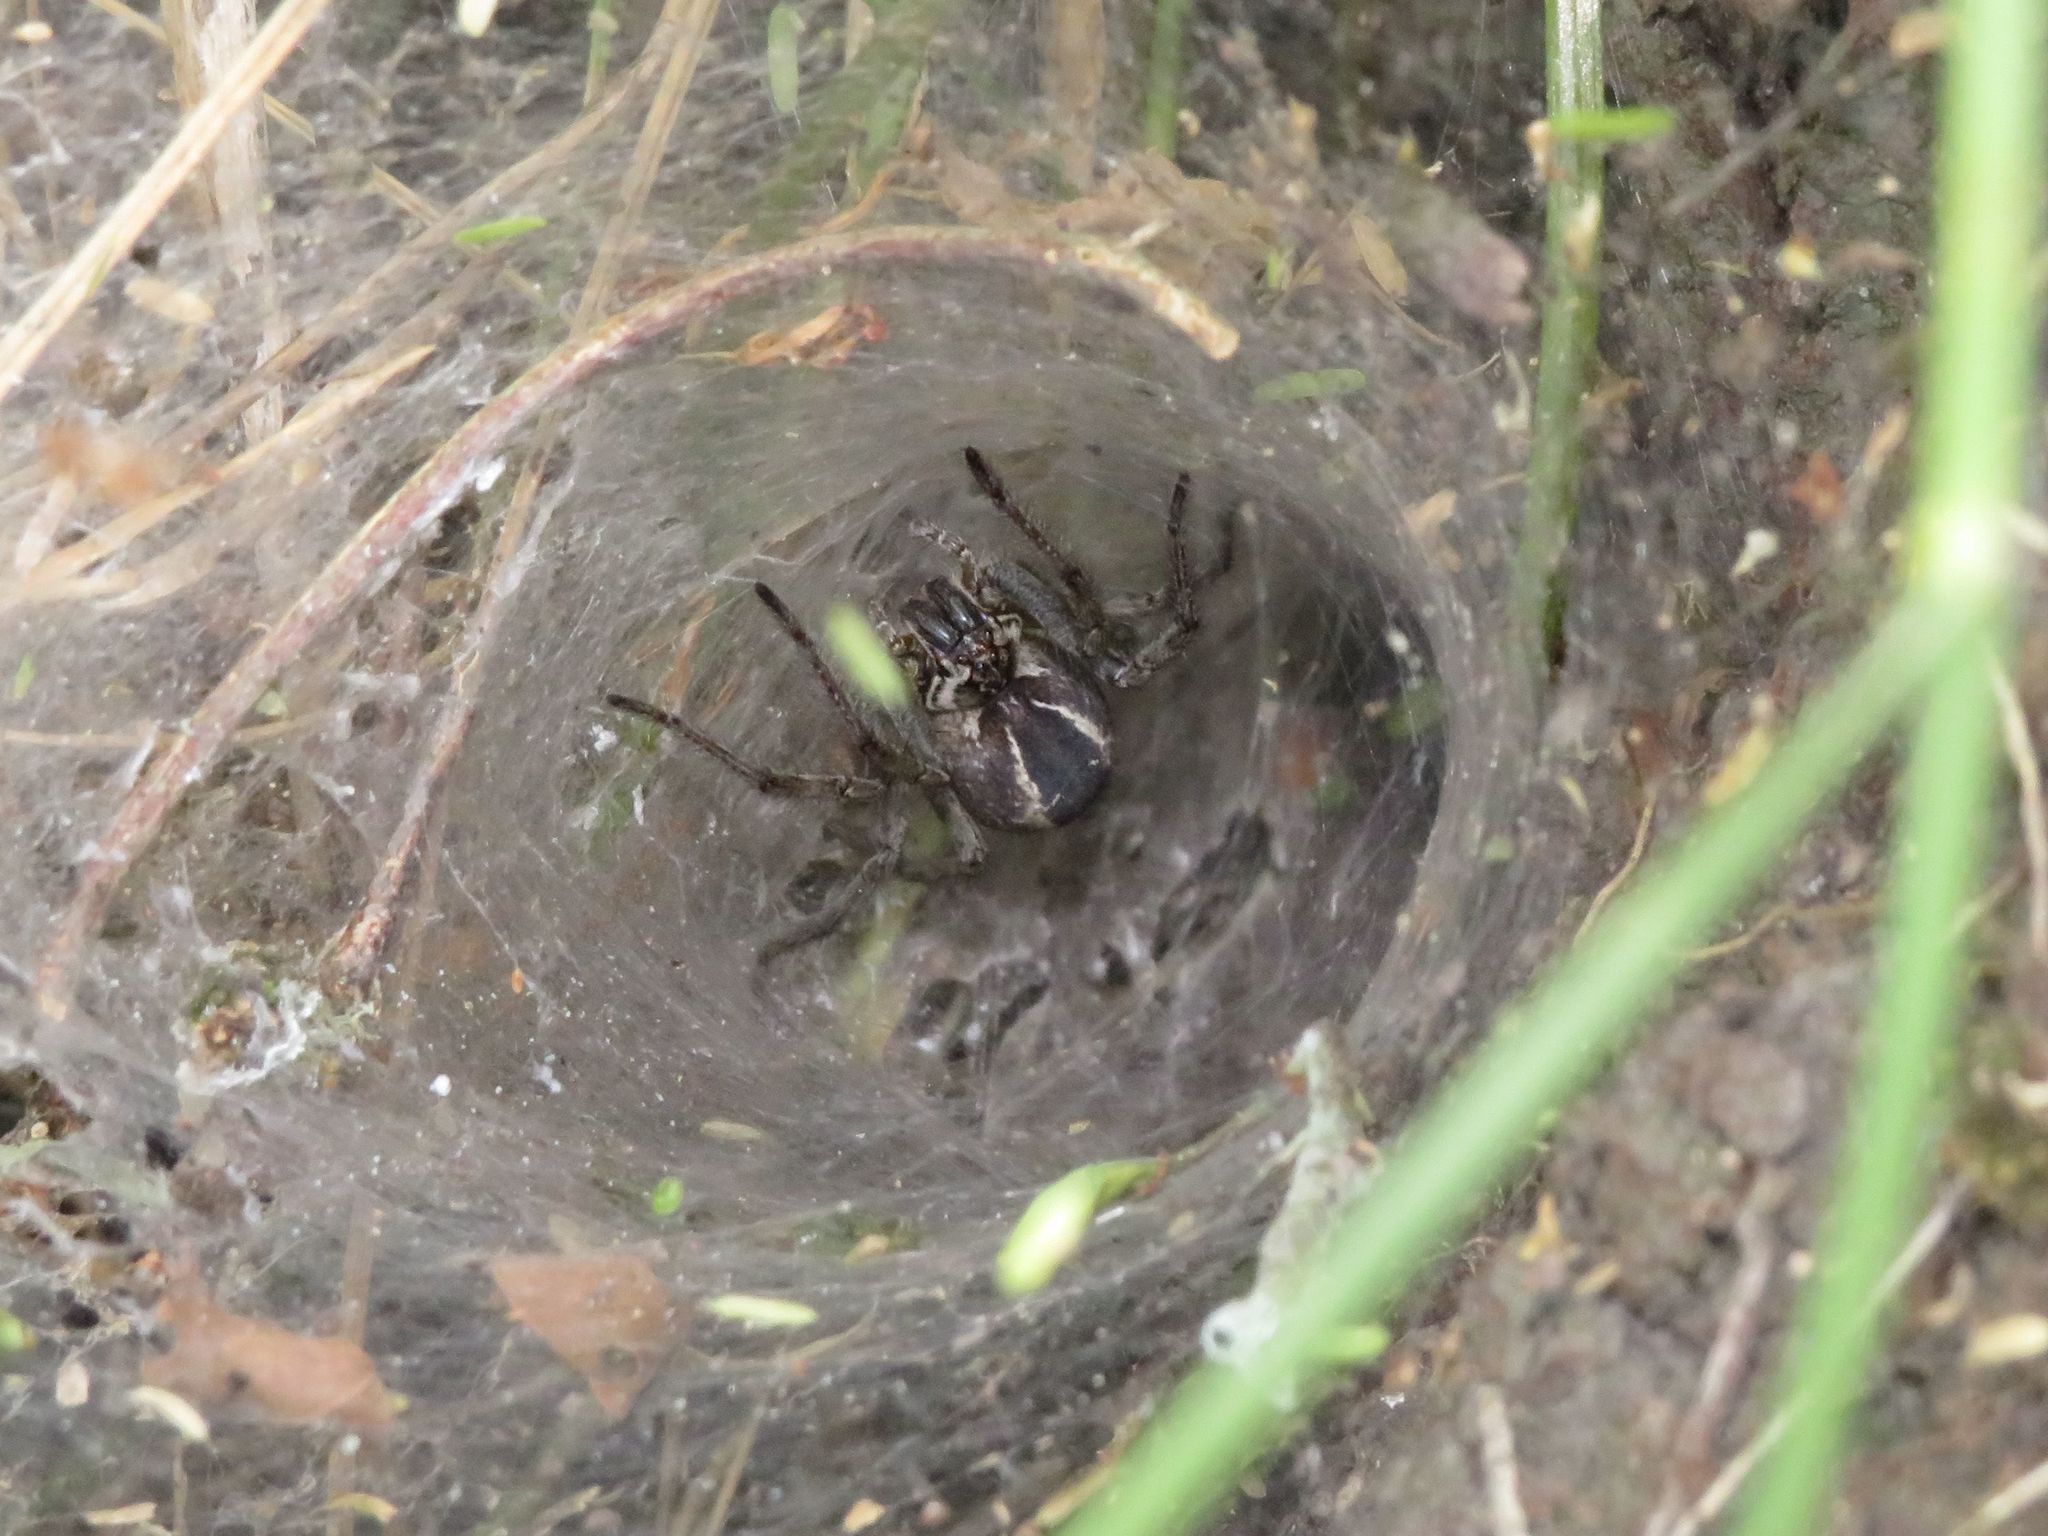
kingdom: Animalia
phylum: Arthropoda
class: Arachnida
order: Araneae
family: Lycosidae
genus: Aglaoctenus
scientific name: Aglaoctenus lagotis
